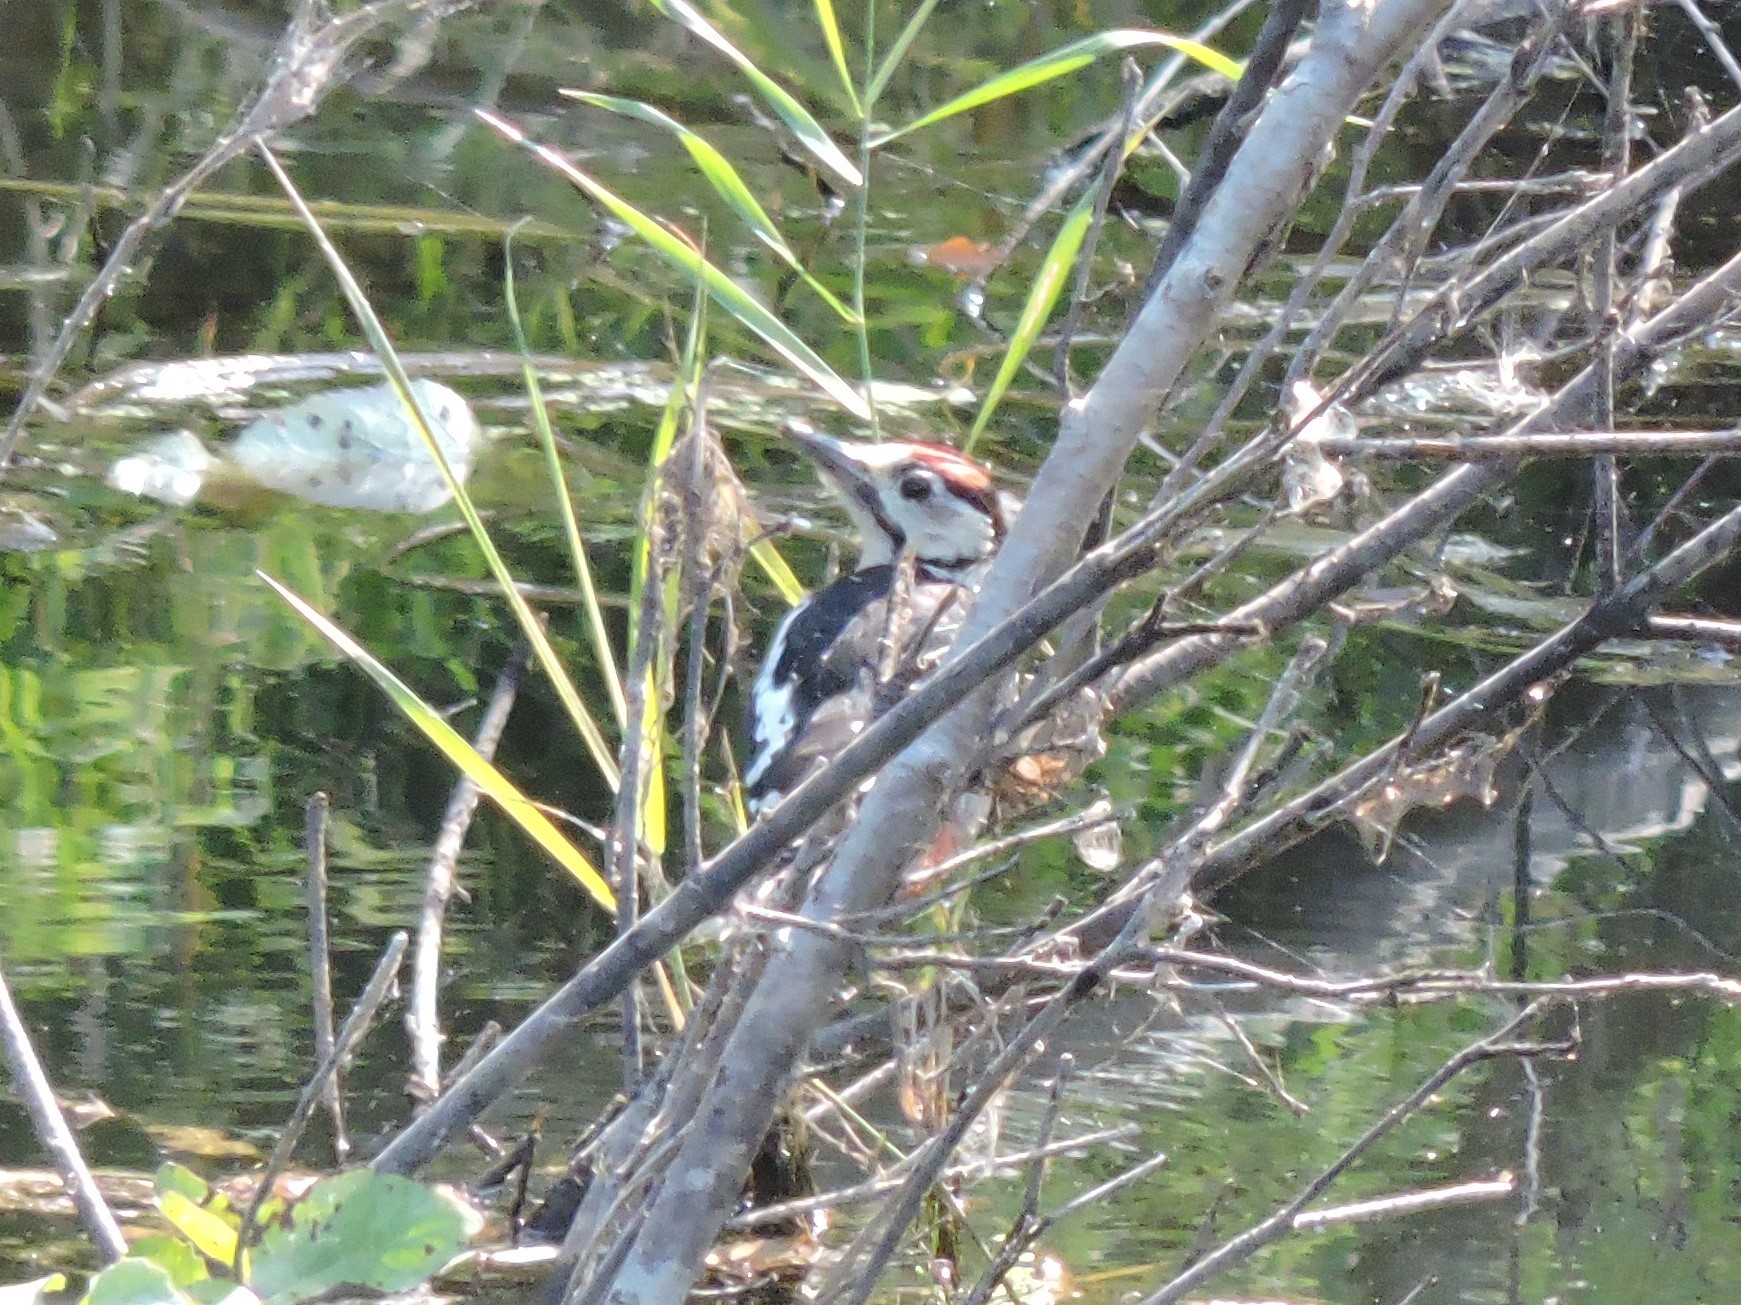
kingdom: Animalia
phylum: Chordata
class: Aves
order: Piciformes
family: Picidae
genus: Dendrocopos
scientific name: Dendrocopos major
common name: Great spotted woodpecker
